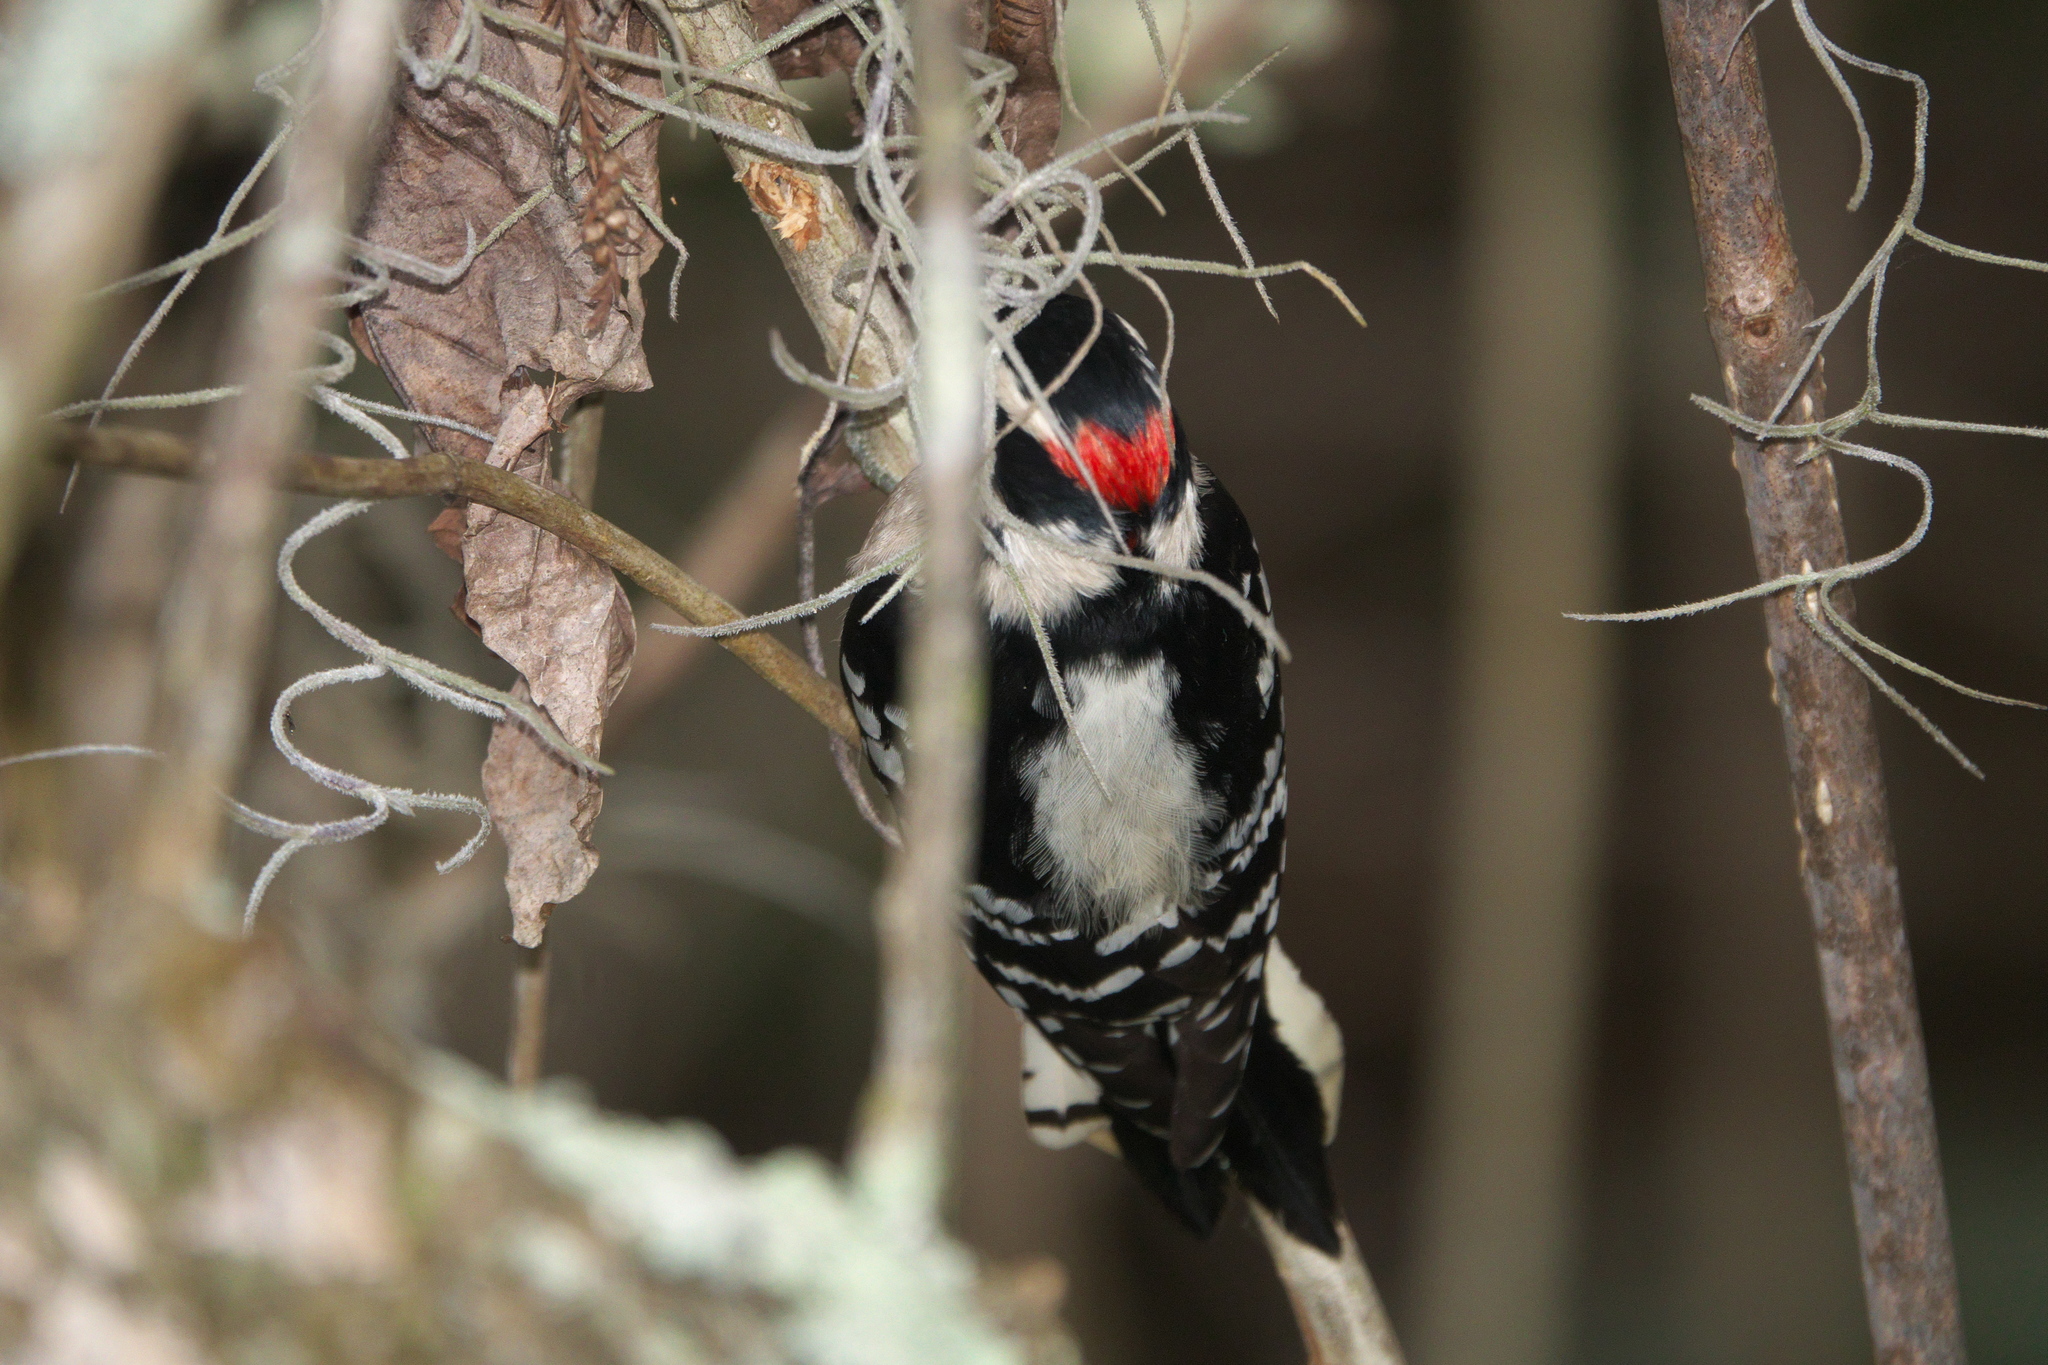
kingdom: Animalia
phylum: Chordata
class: Aves
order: Piciformes
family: Picidae
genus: Dryobates
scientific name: Dryobates pubescens
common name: Downy woodpecker
